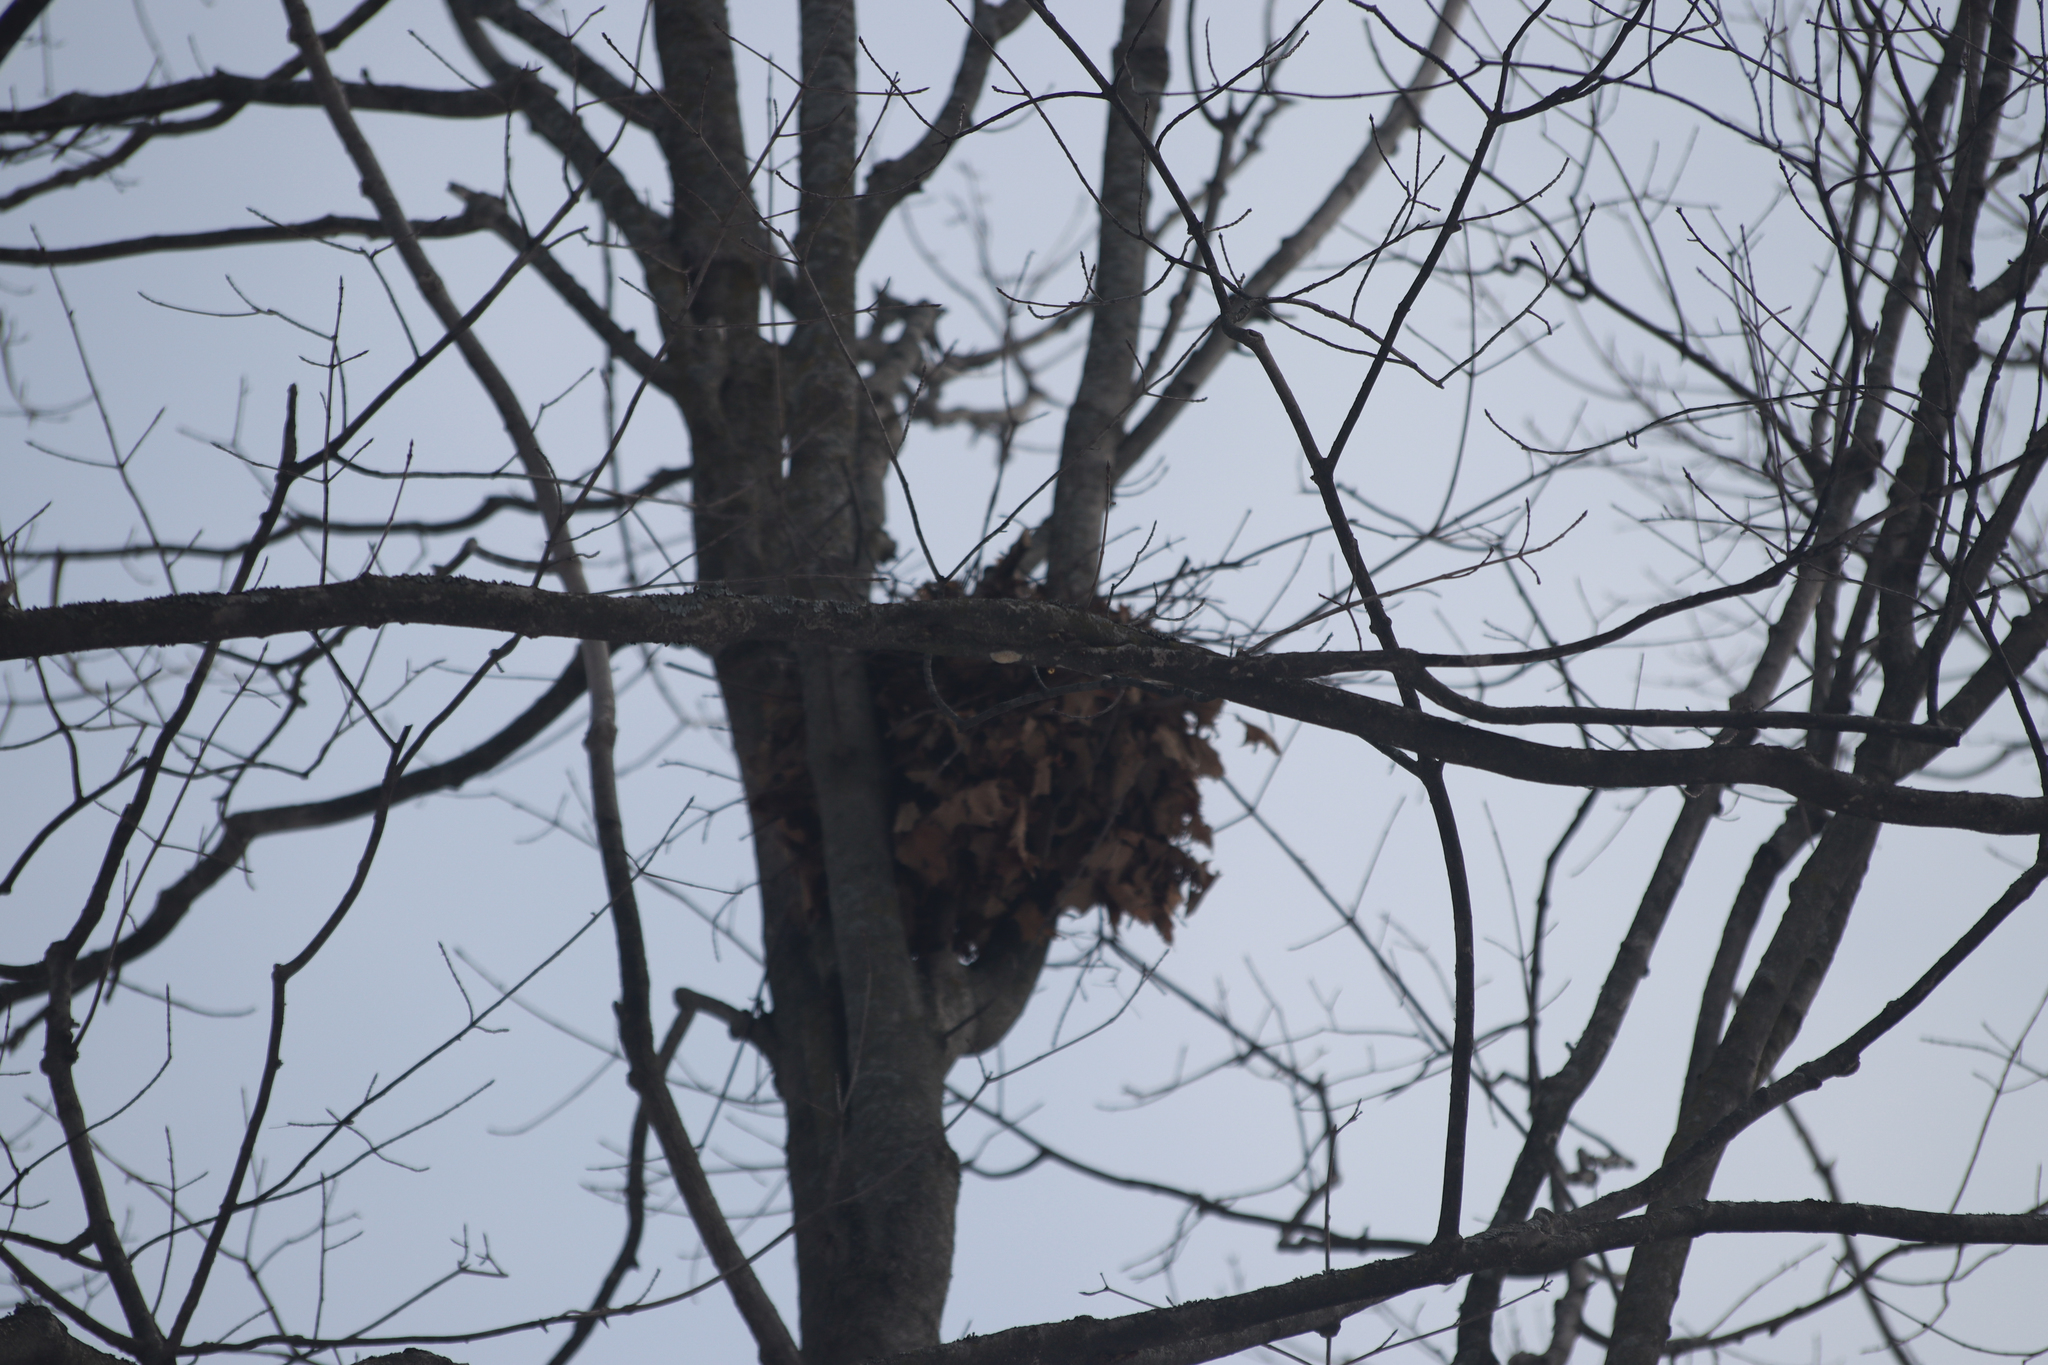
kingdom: Animalia
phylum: Chordata
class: Mammalia
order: Rodentia
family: Sciuridae
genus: Sciurus
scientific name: Sciurus carolinensis
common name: Eastern gray squirrel
